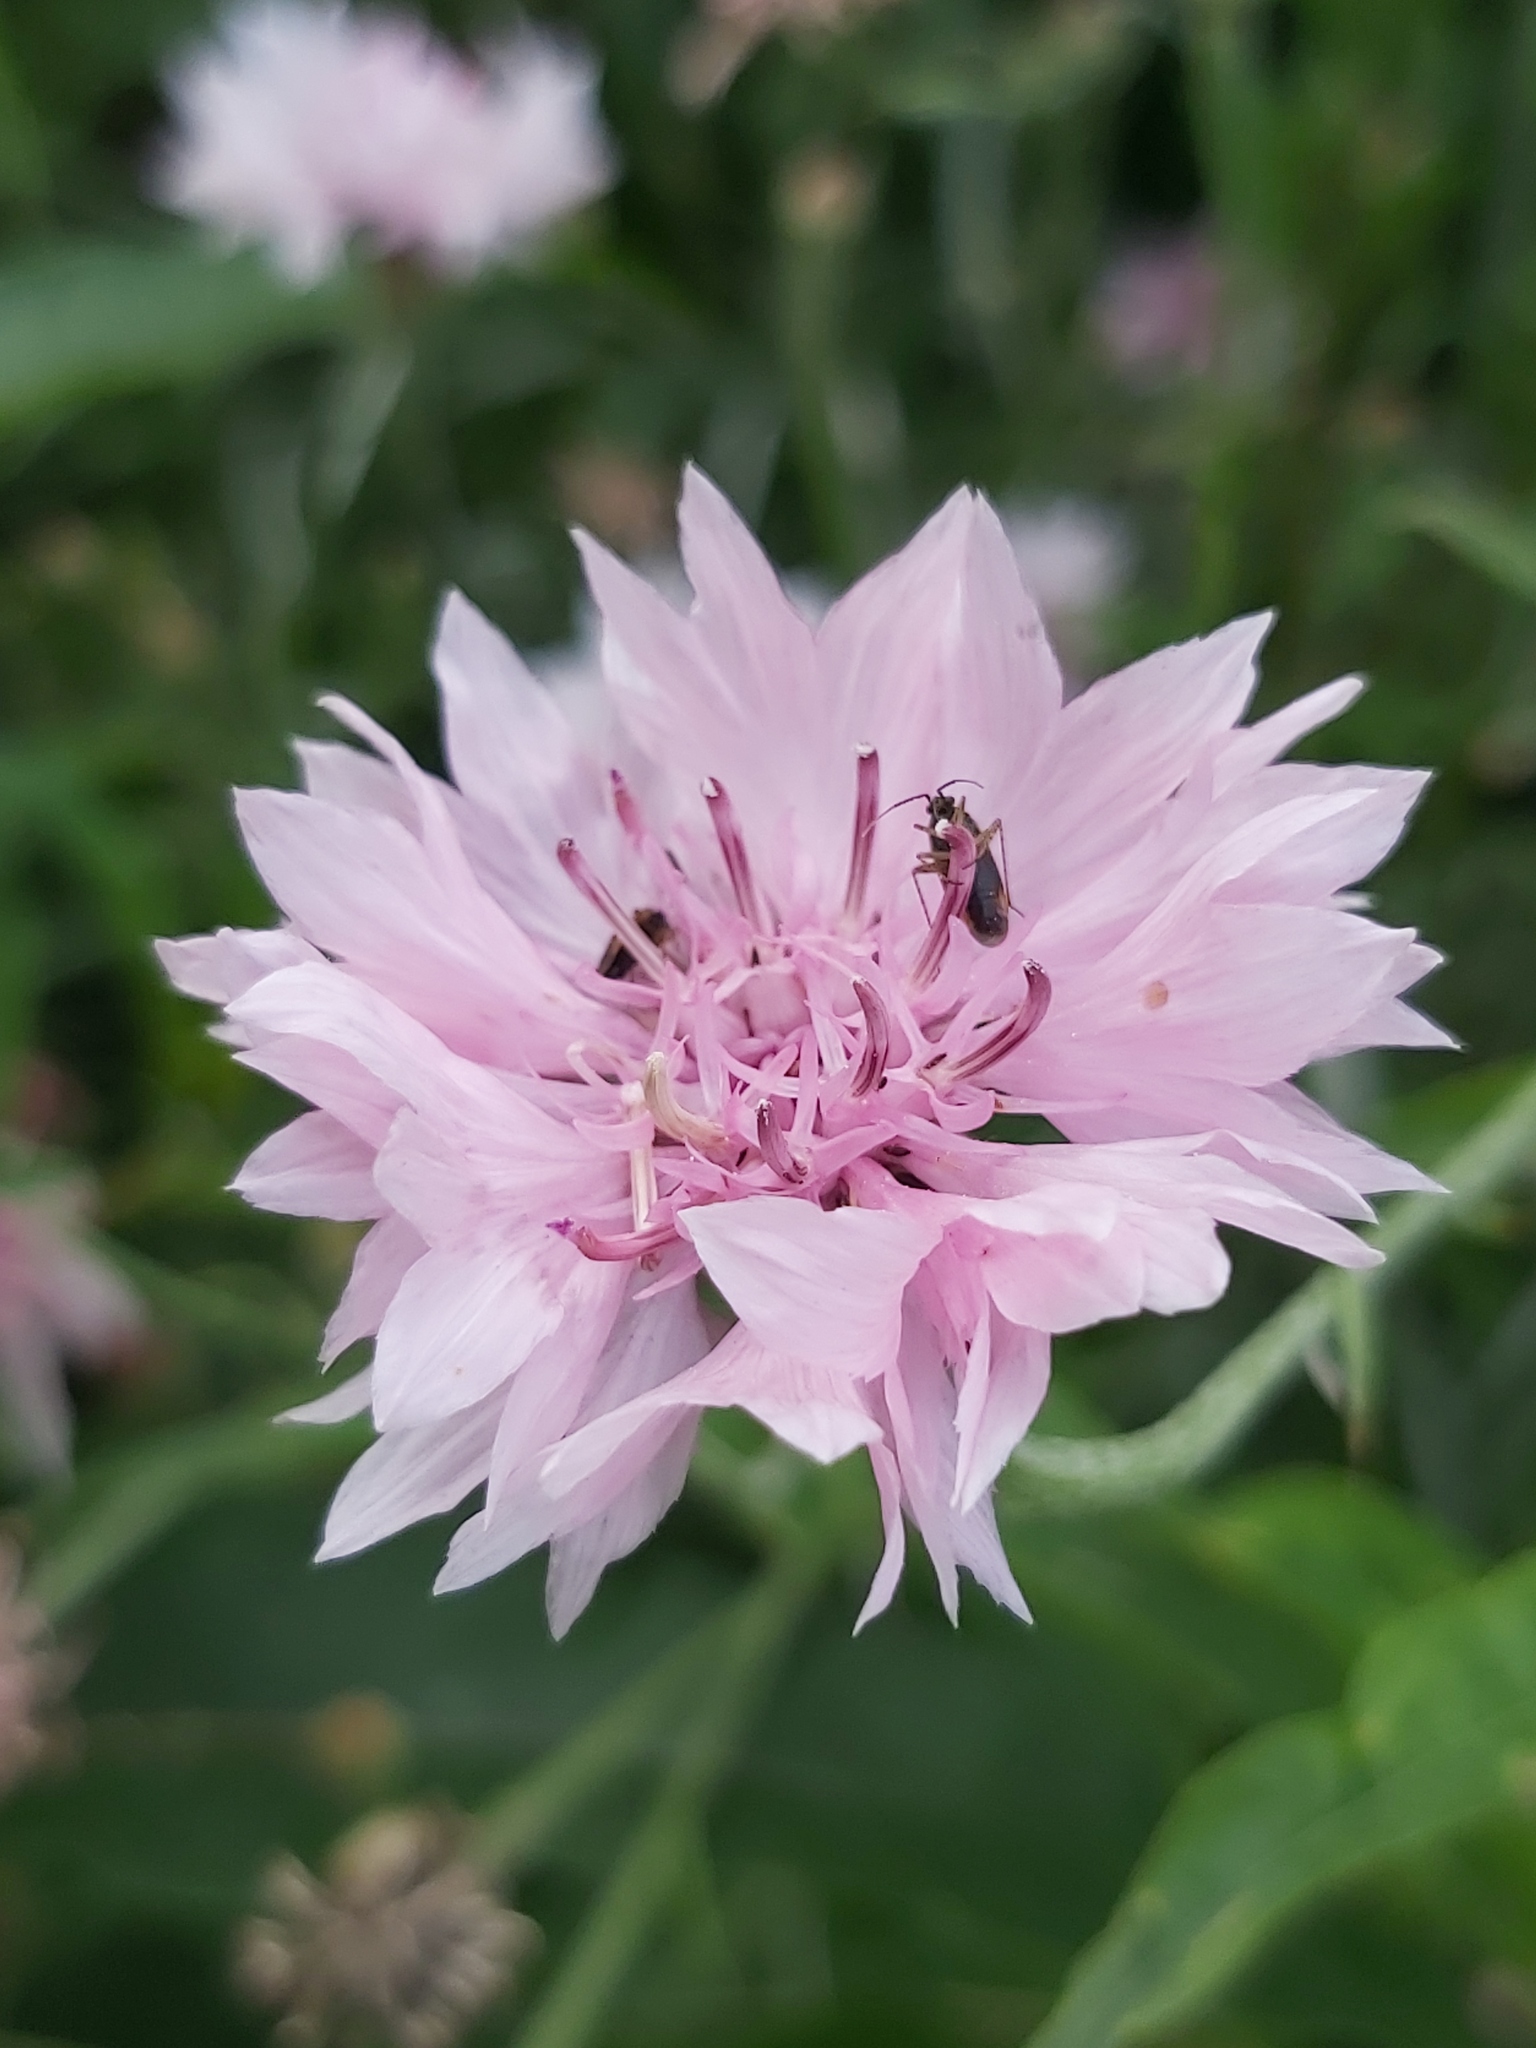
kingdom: Plantae
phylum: Tracheophyta
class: Magnoliopsida
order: Asterales
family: Asteraceae
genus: Centaurea
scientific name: Centaurea cyanus
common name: Cornflower
